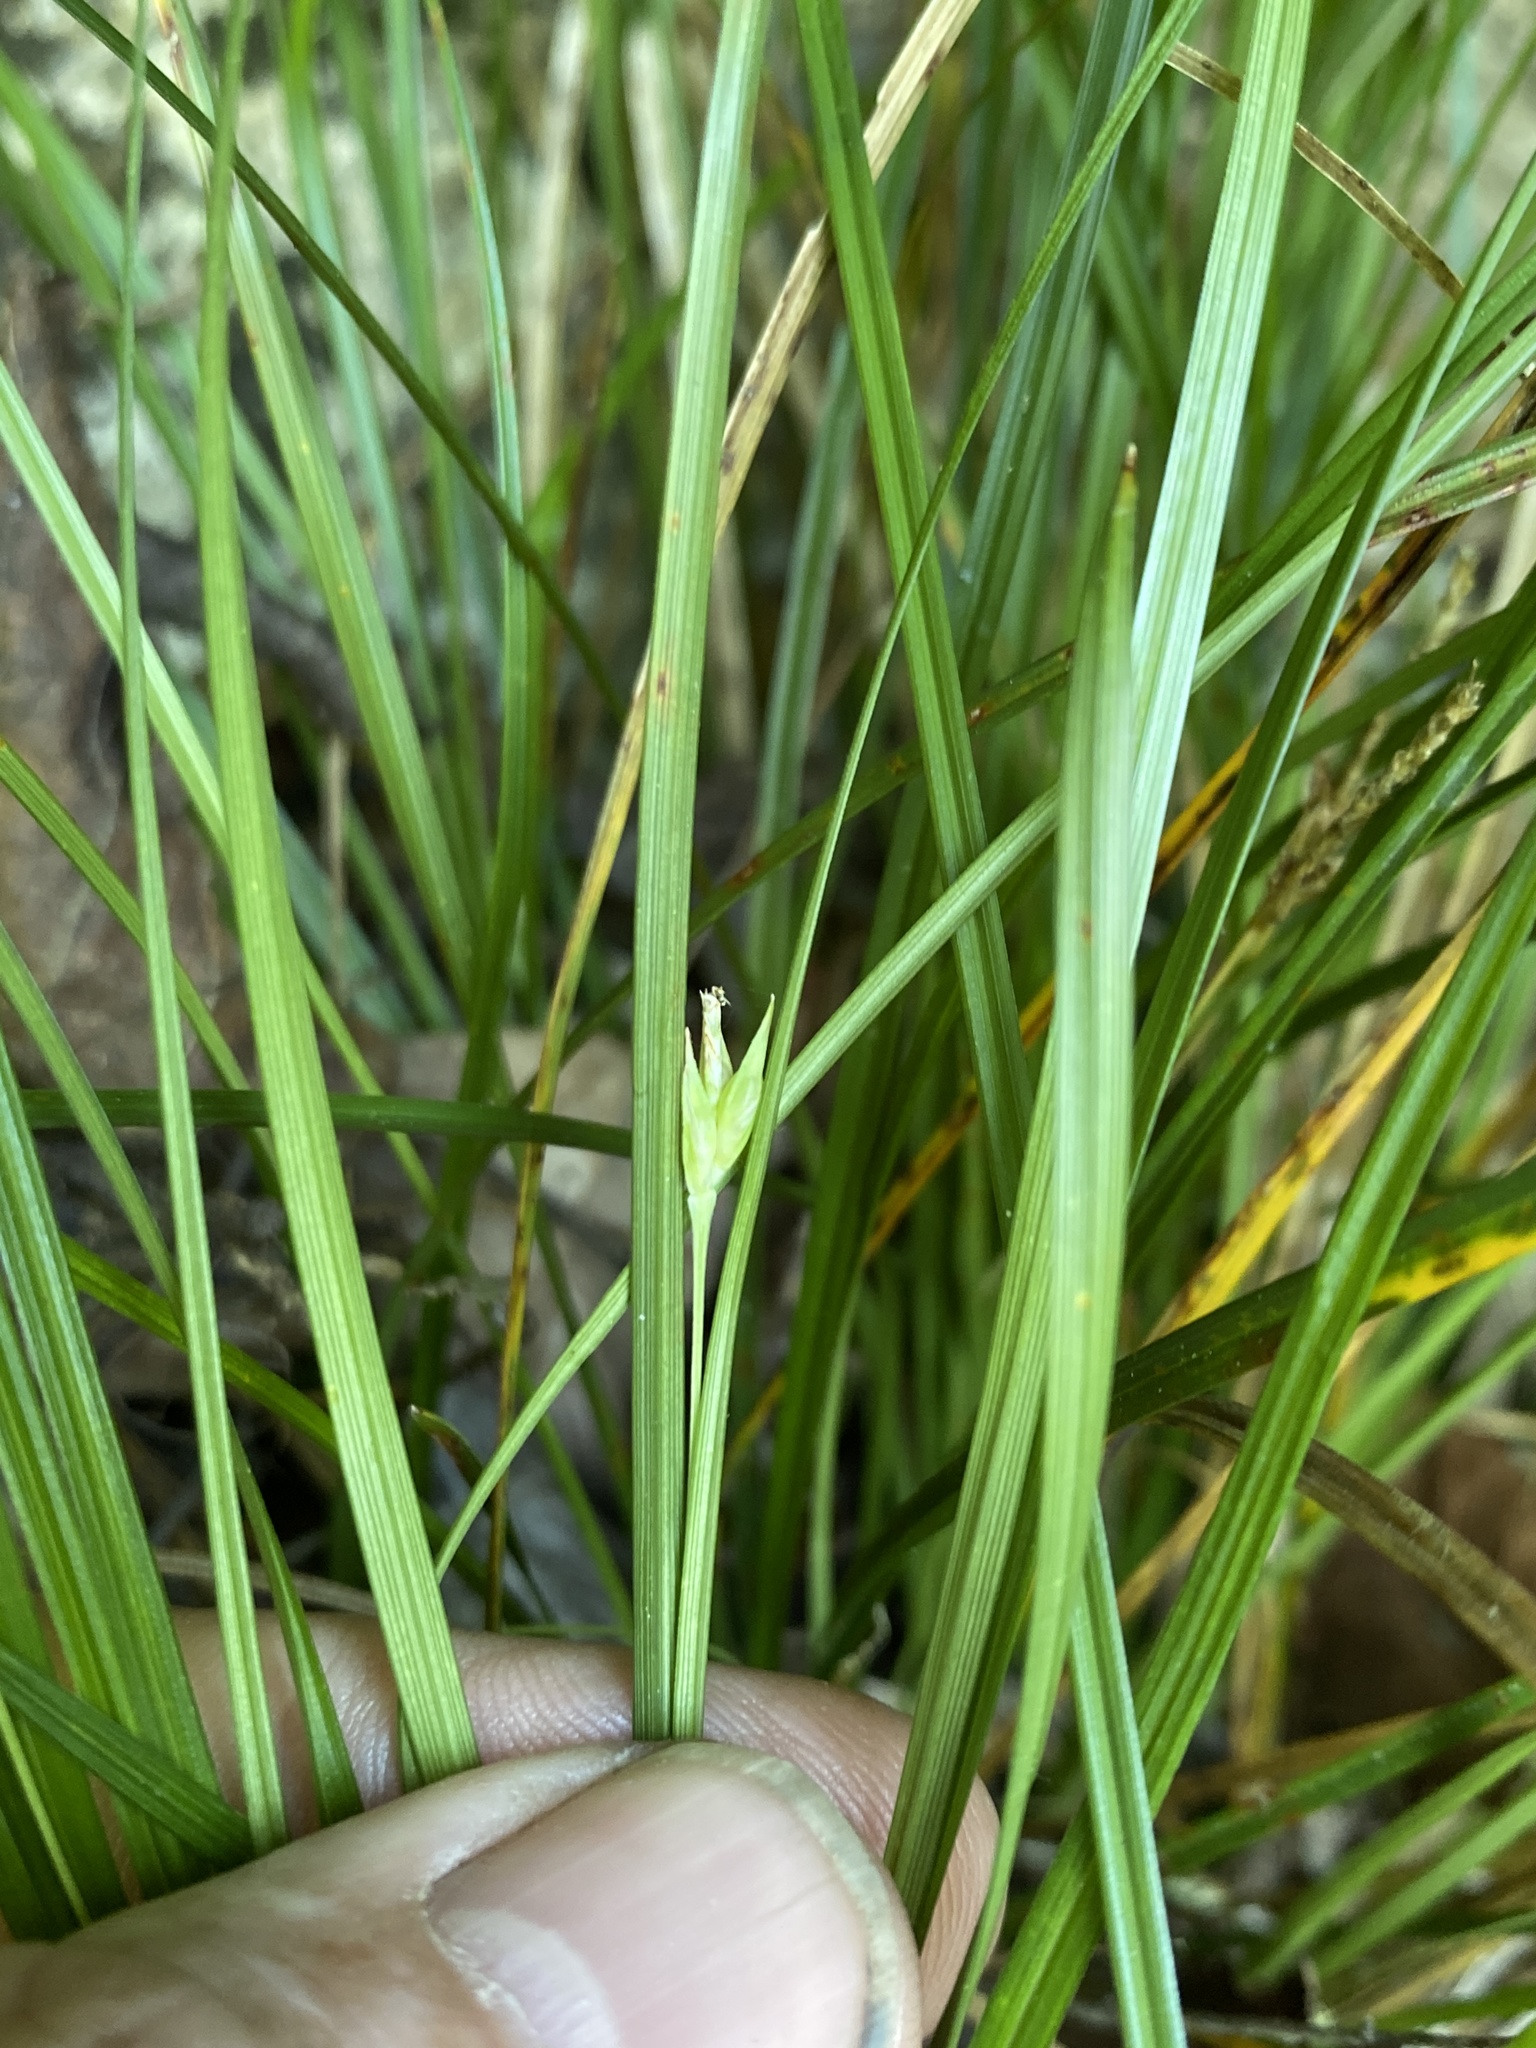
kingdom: Plantae
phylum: Tracheophyta
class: Liliopsida
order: Poales
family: Cyperaceae
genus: Carex
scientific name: Carex basiantha
